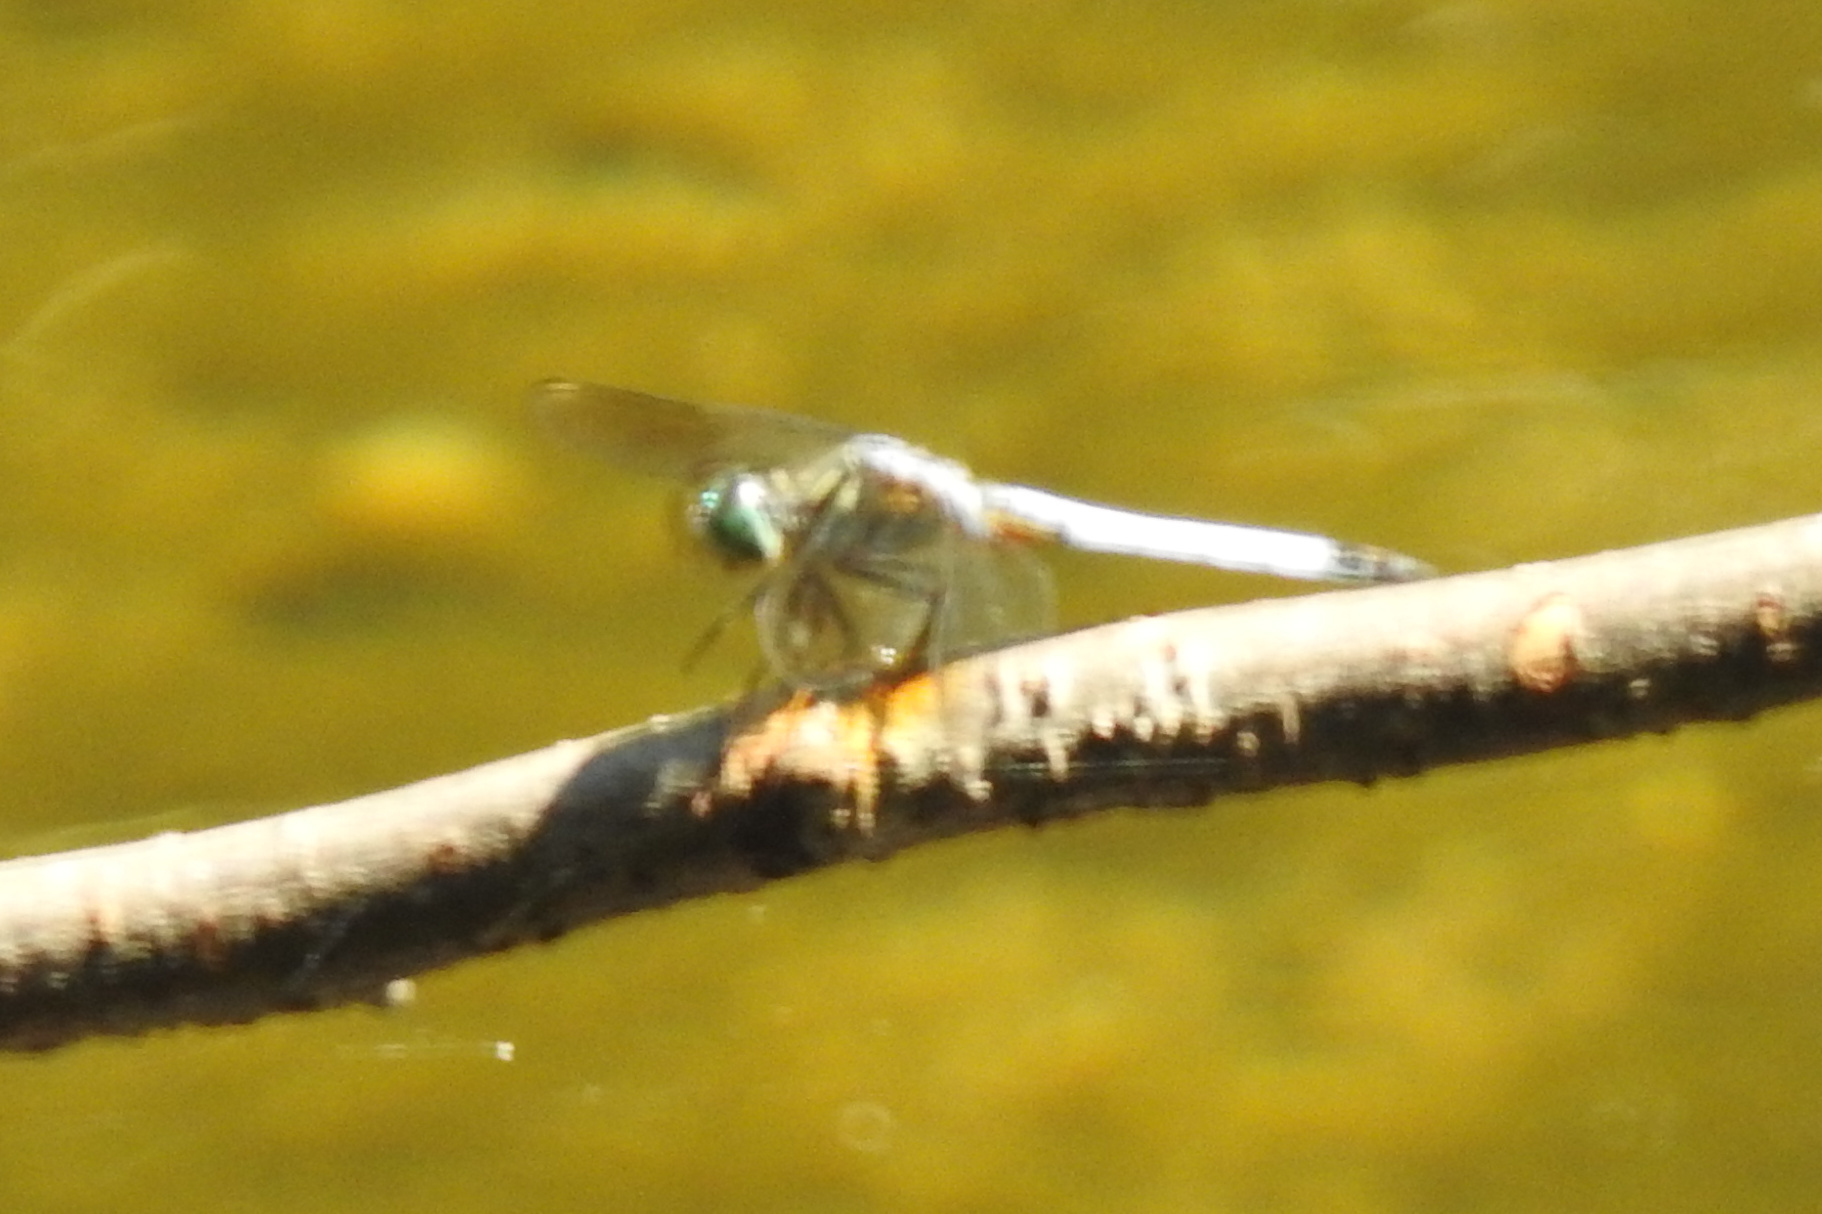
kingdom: Animalia
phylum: Arthropoda
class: Insecta
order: Odonata
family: Libellulidae
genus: Pachydiplax
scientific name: Pachydiplax longipennis
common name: Blue dasher
